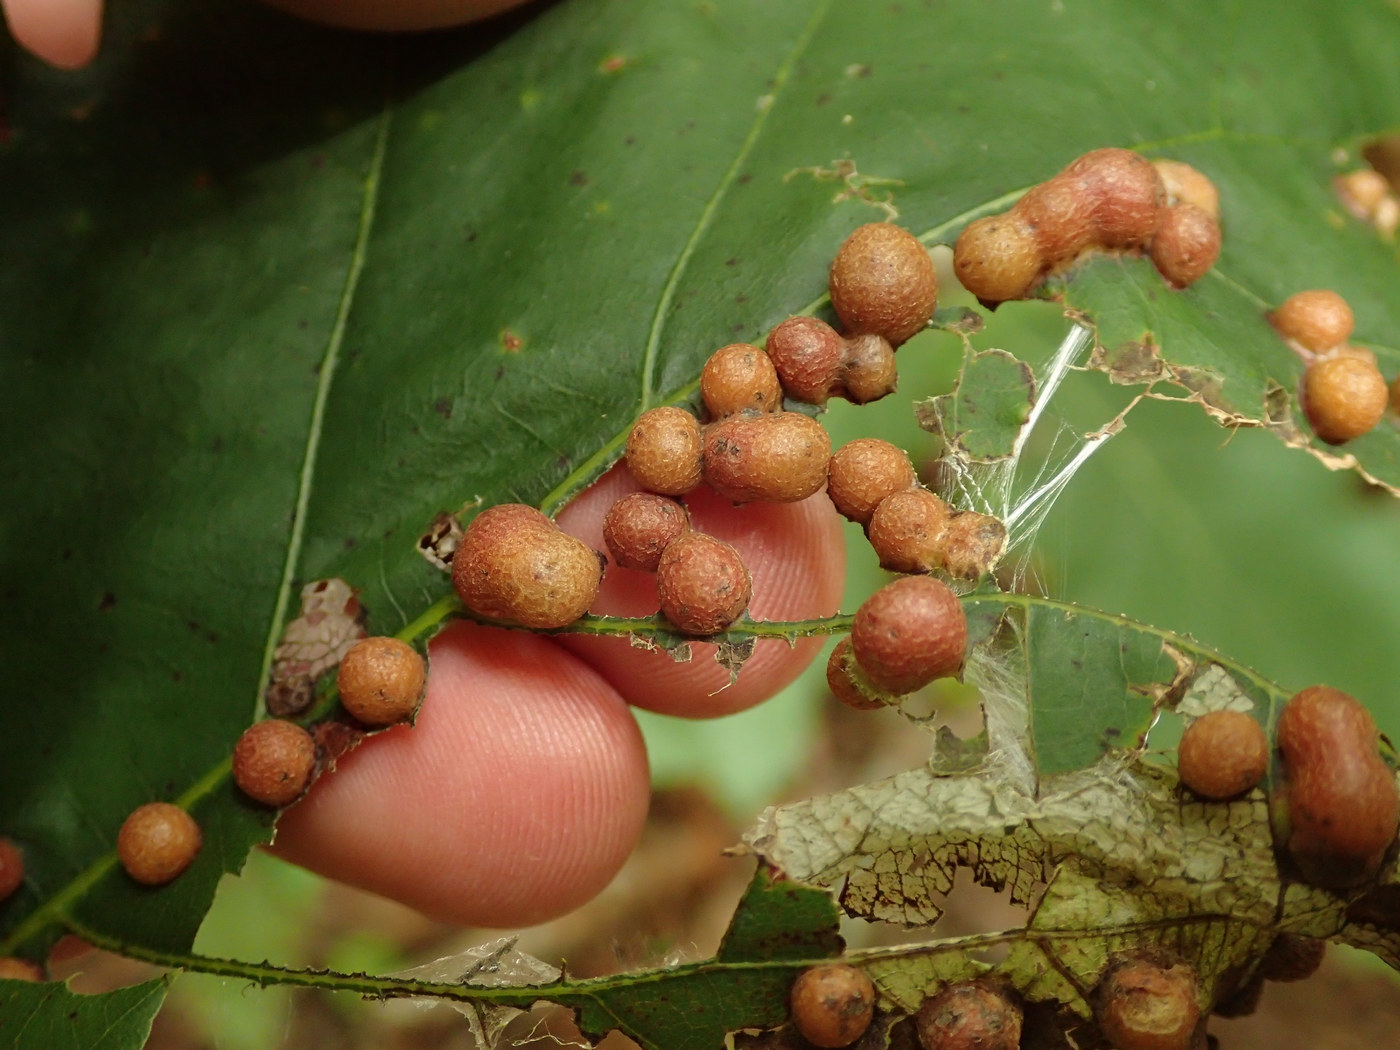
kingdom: Animalia
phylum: Arthropoda
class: Insecta
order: Diptera
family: Cecidomyiidae
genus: Polystepha
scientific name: Polystepha pilulae
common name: Oak leaf gall midge
